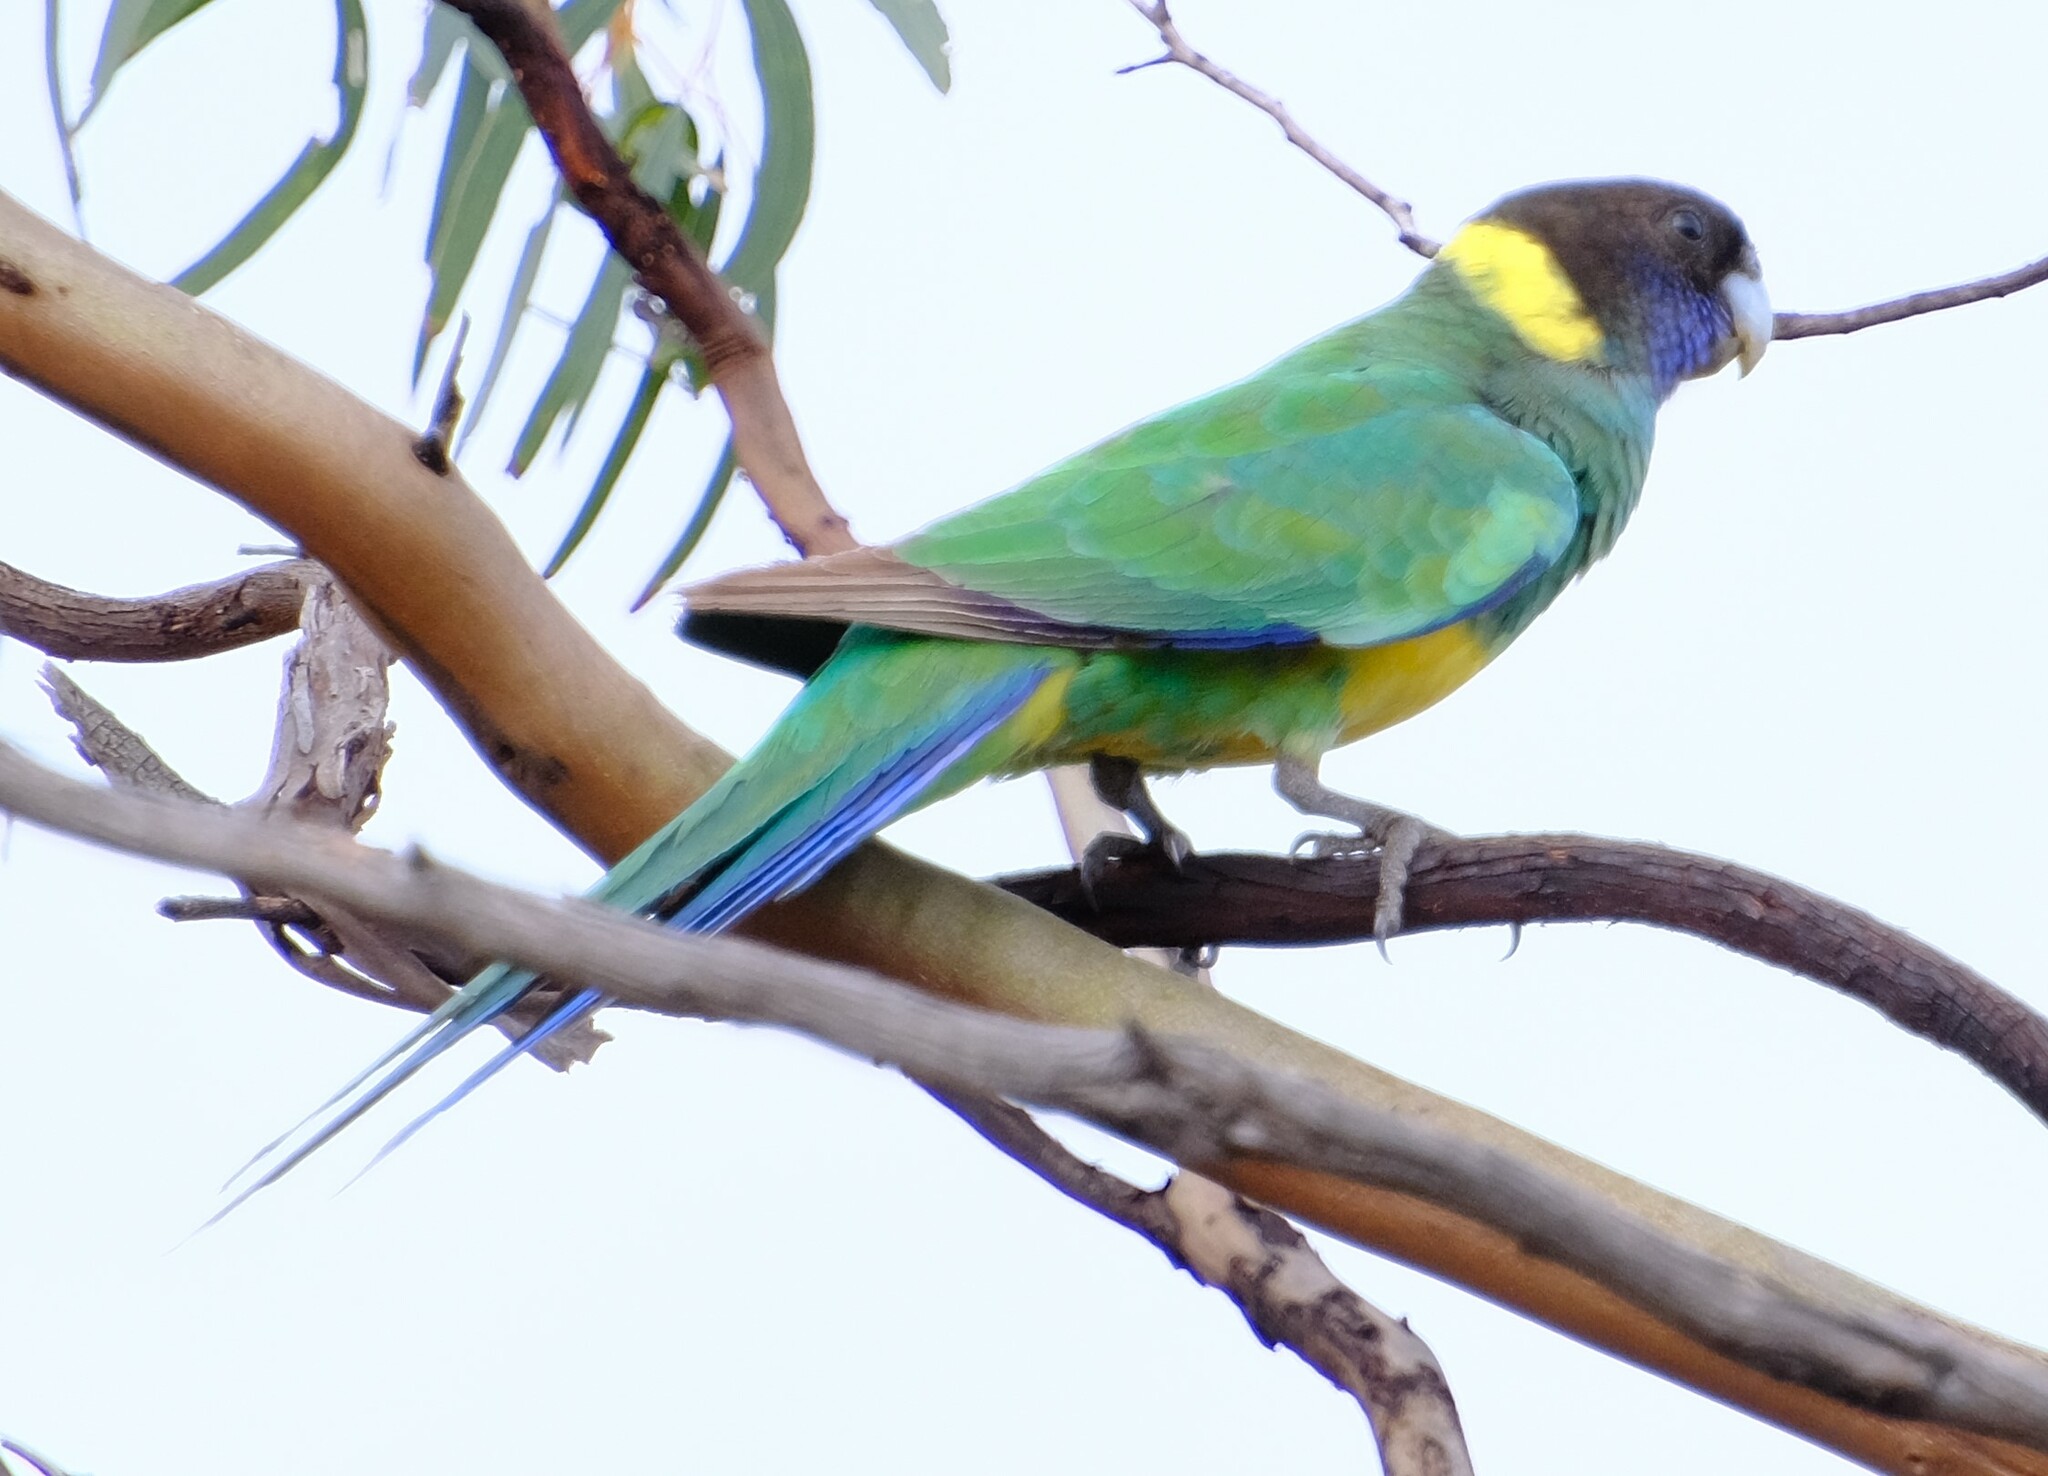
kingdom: Animalia
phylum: Chordata
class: Aves
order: Psittaciformes
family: Psittacidae
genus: Barnardius
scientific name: Barnardius zonarius
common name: Australian ringneck
